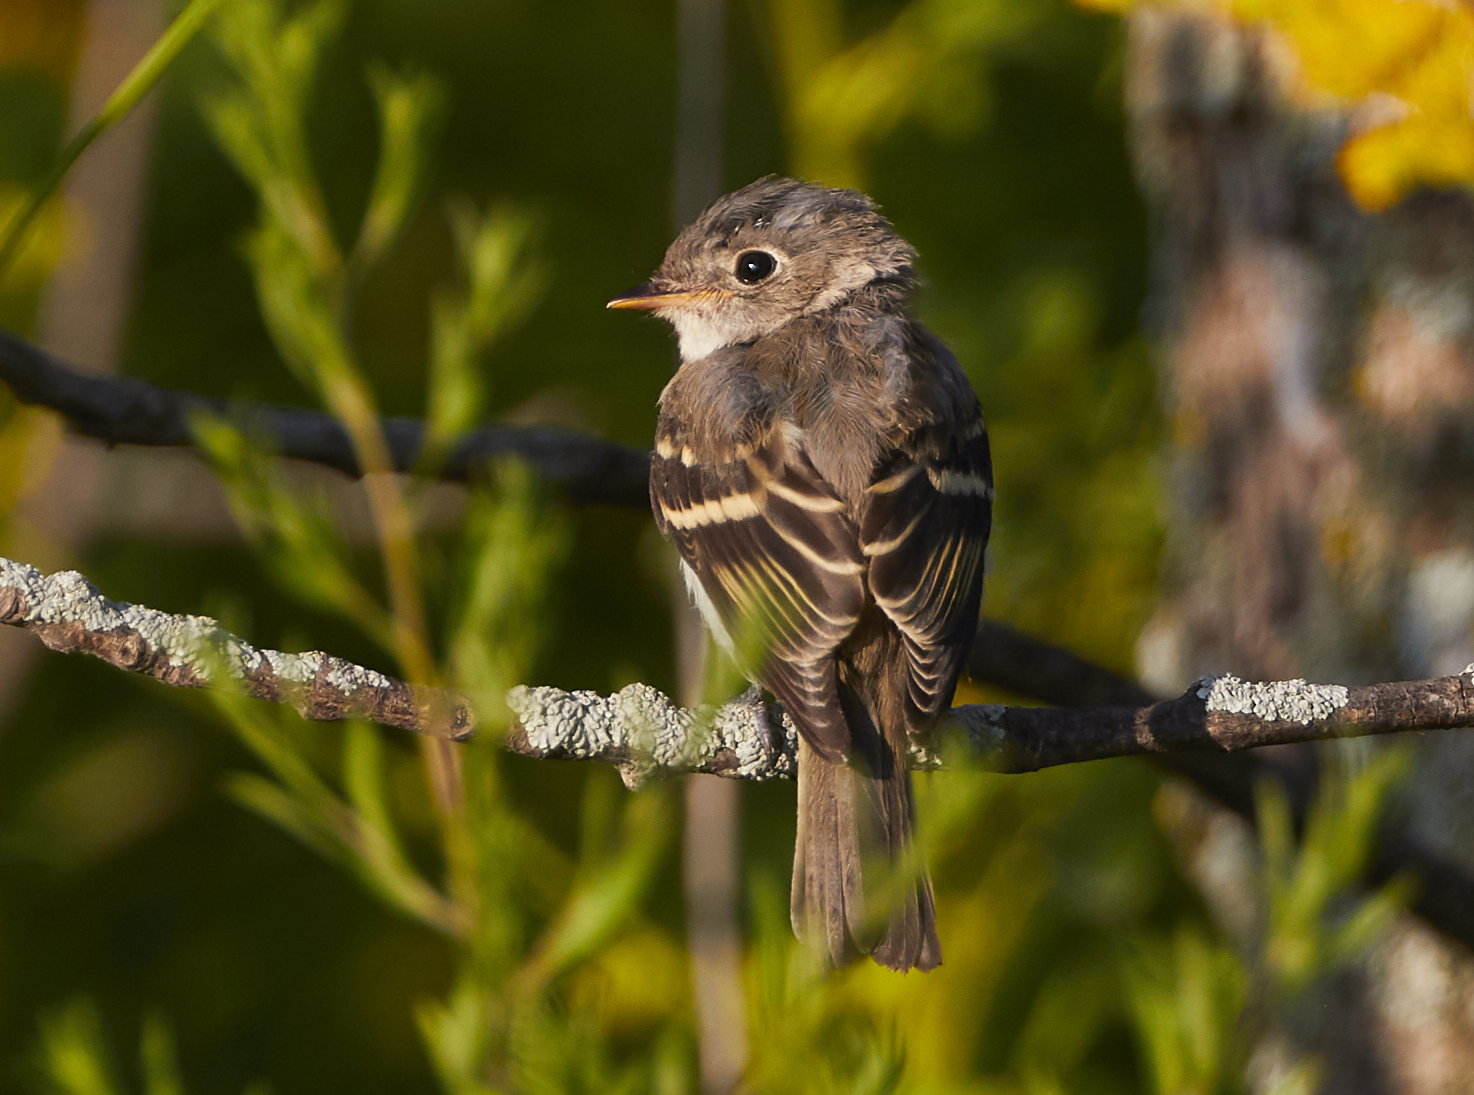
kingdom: Animalia
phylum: Chordata
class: Aves
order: Passeriformes
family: Tyrannidae
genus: Empidonax
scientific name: Empidonax minimus
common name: Least flycatcher
